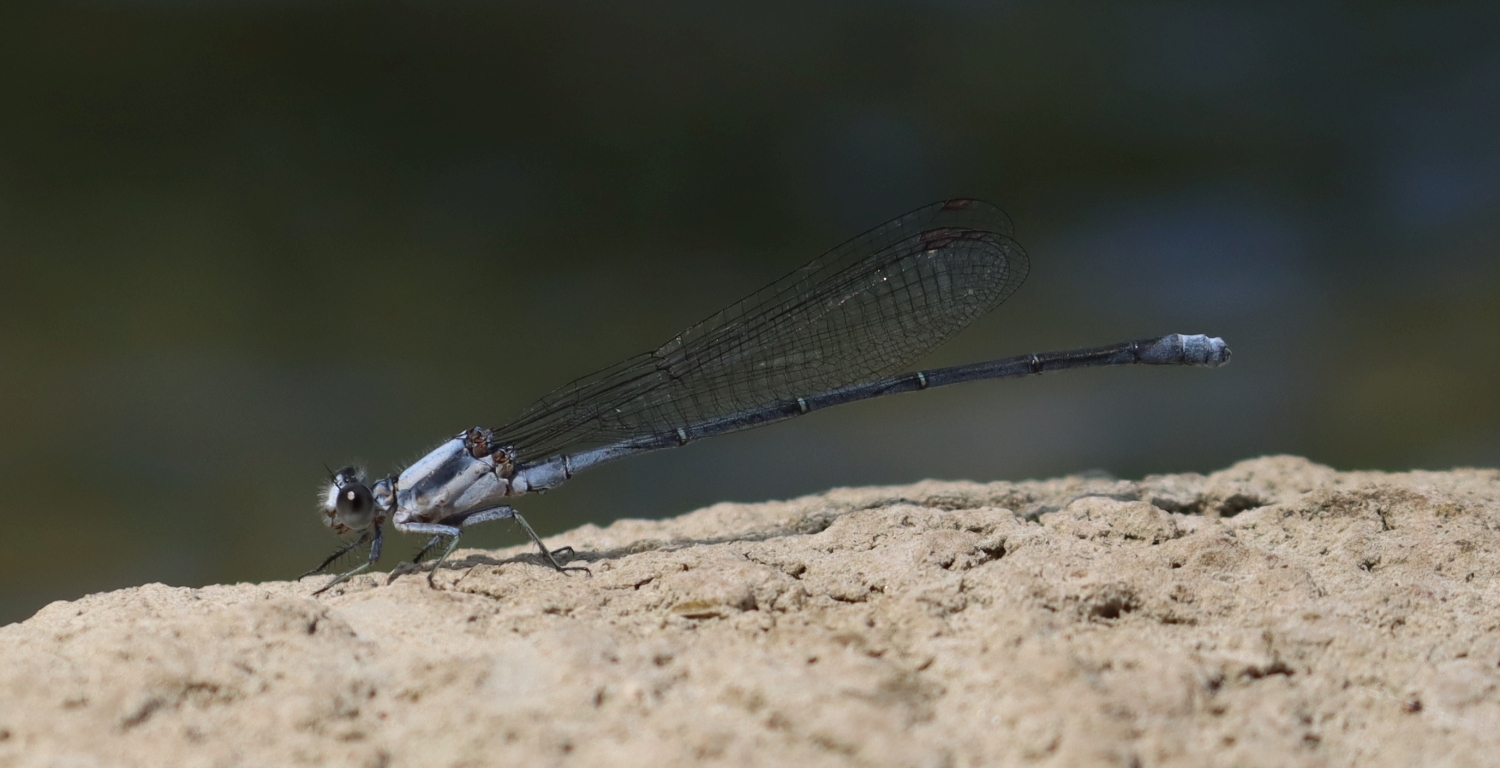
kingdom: Animalia
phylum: Arthropoda
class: Insecta
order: Odonata
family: Coenagrionidae
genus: Argia
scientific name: Argia moesta
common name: Powdered dancer
